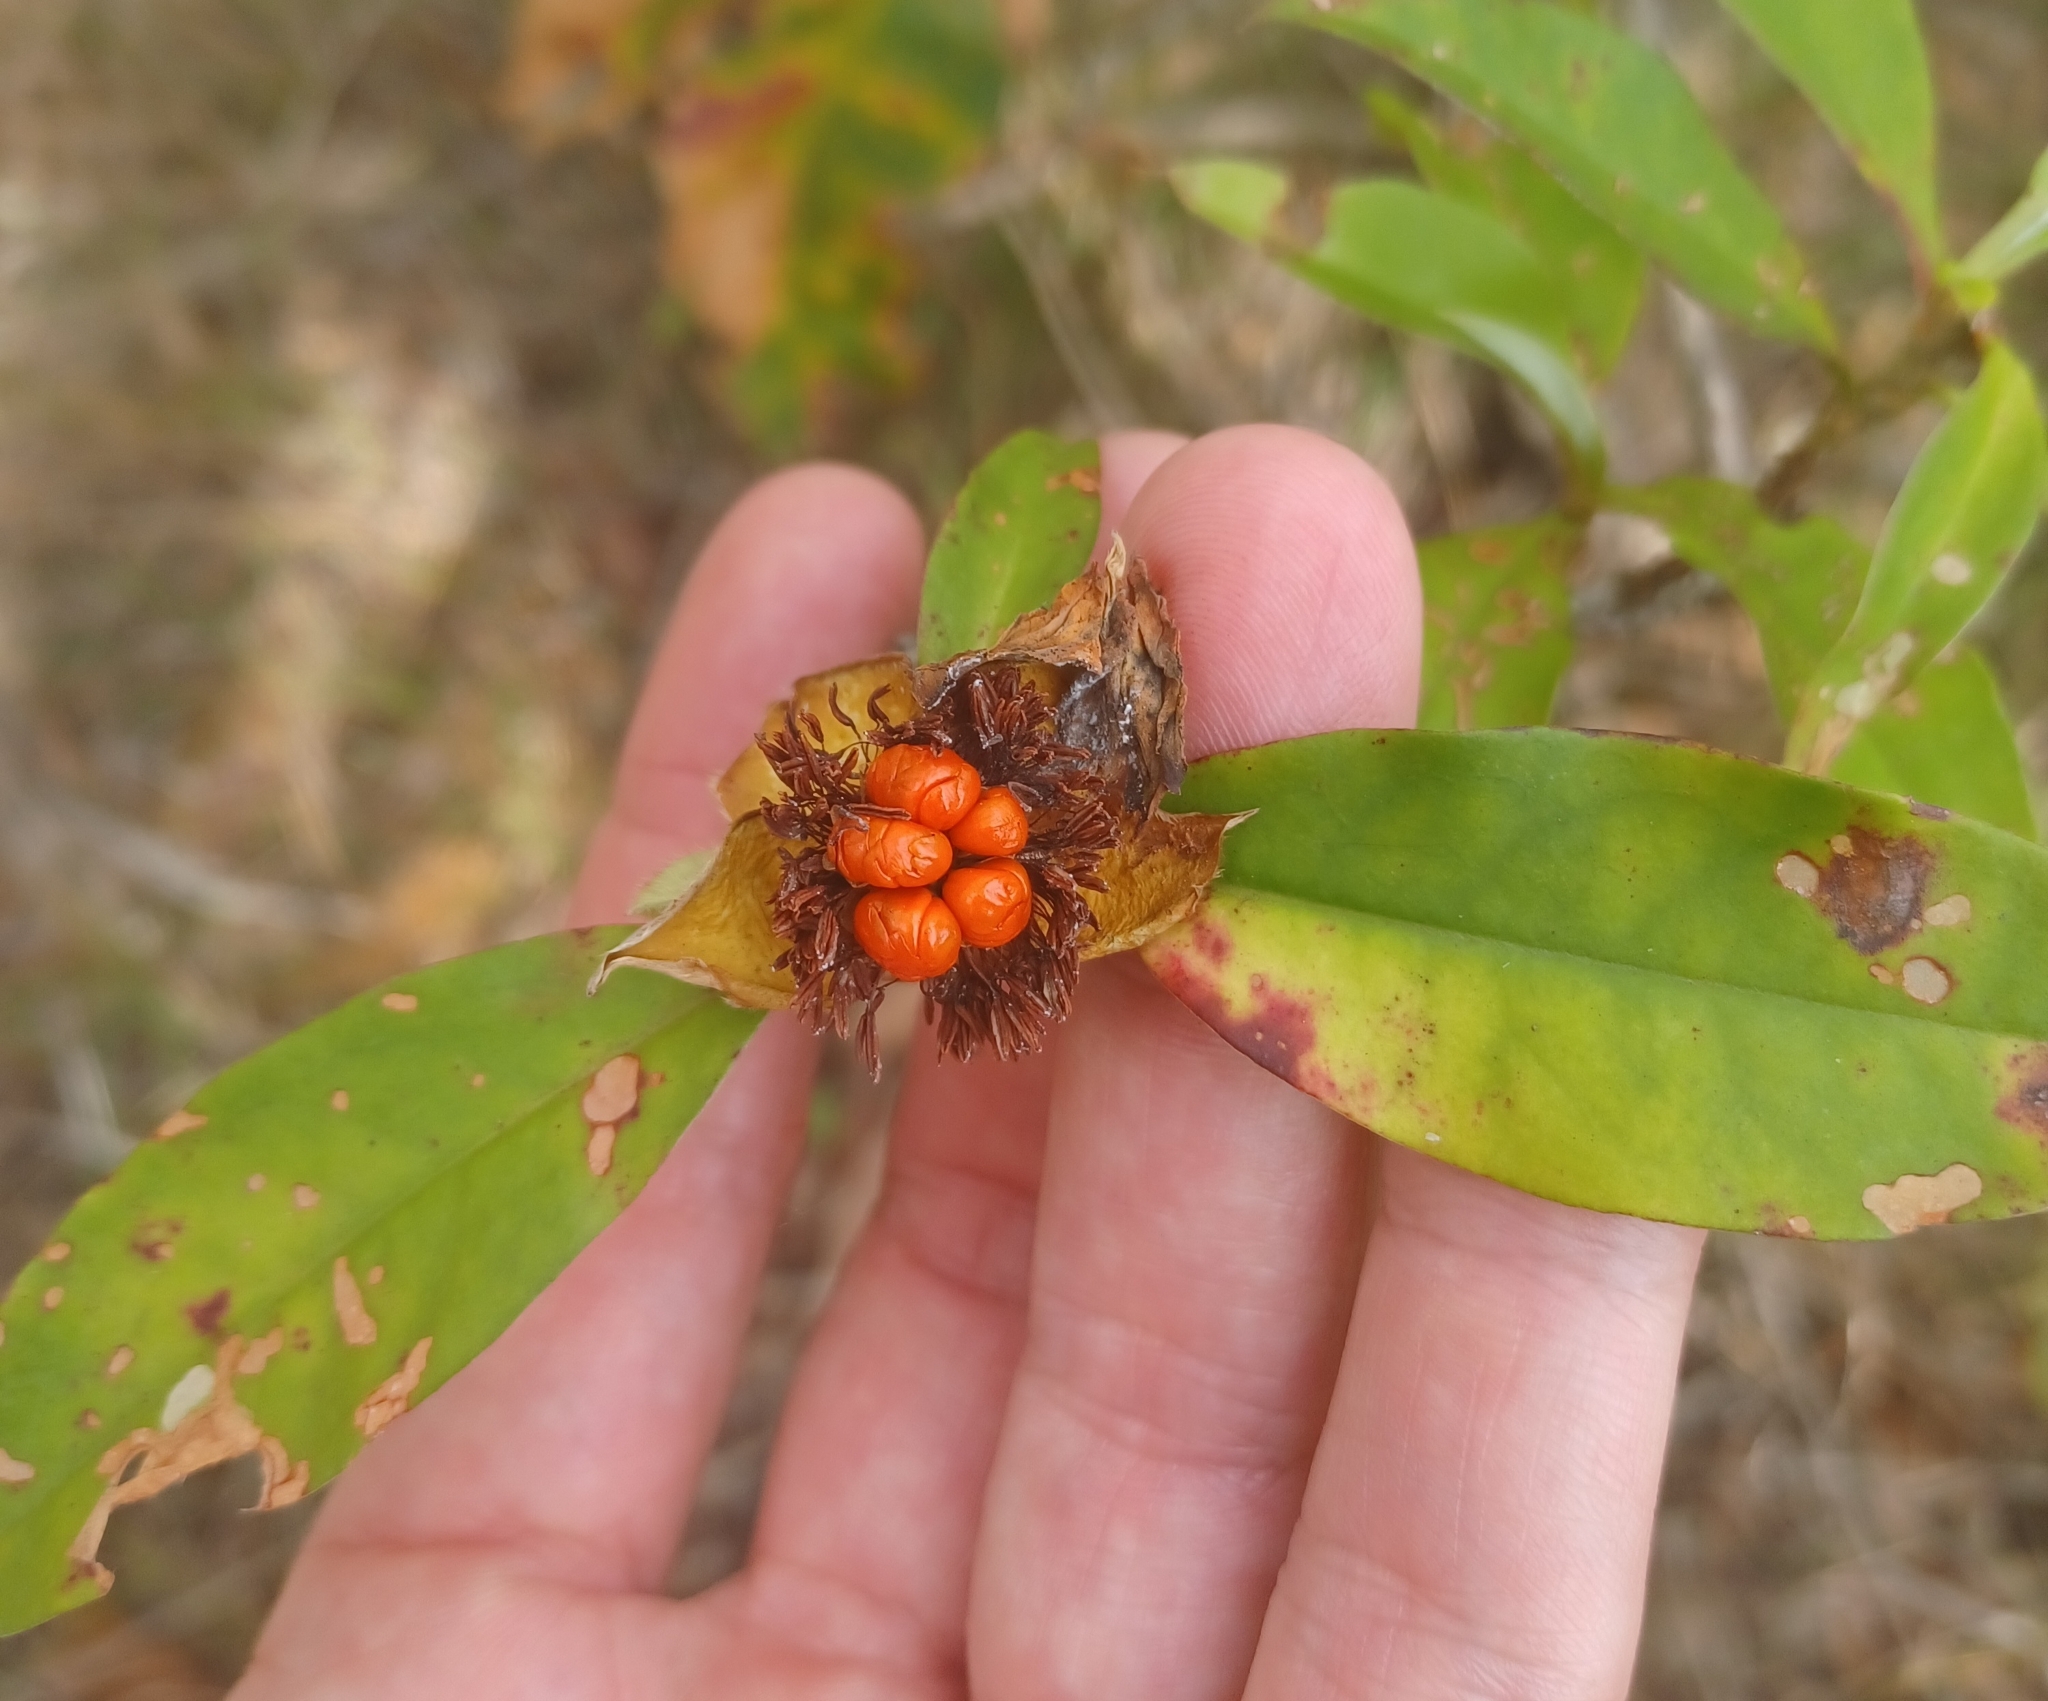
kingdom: Plantae
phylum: Tracheophyta
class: Magnoliopsida
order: Dilleniales
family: Dilleniaceae
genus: Hibbertia
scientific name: Hibbertia scandens
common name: Climbing guinea-flower
